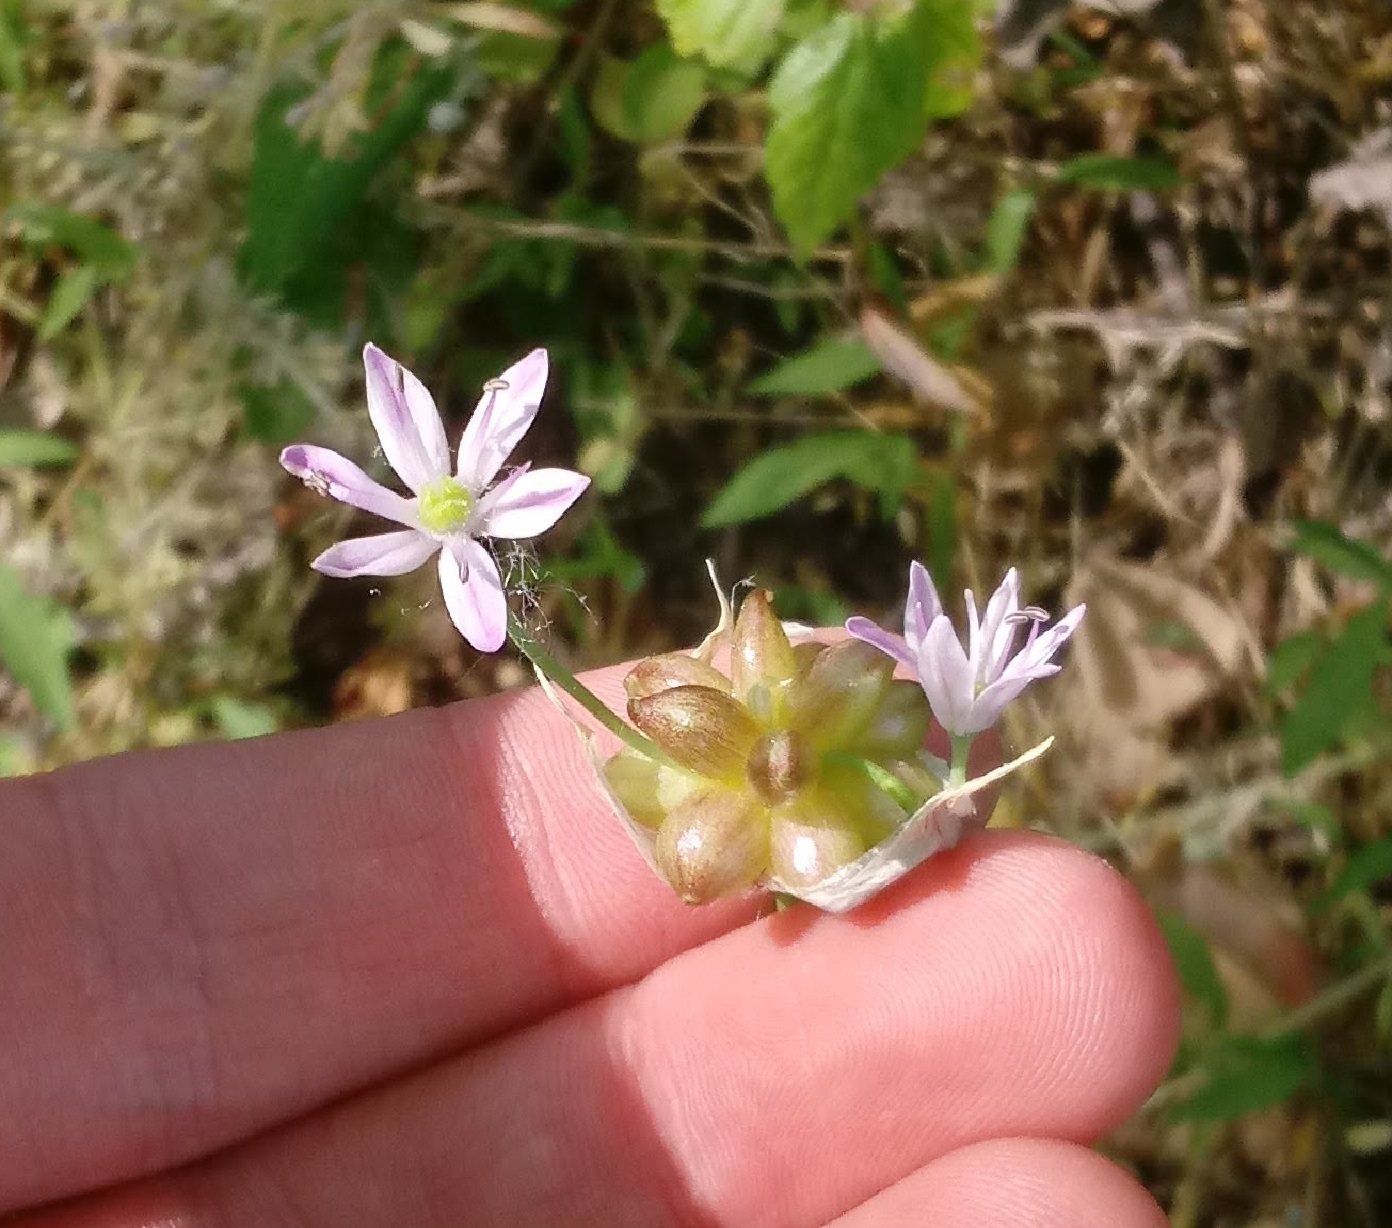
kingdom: Plantae
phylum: Tracheophyta
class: Liliopsida
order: Asparagales
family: Amaryllidaceae
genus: Allium
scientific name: Allium canadense
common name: Meadow garlic
